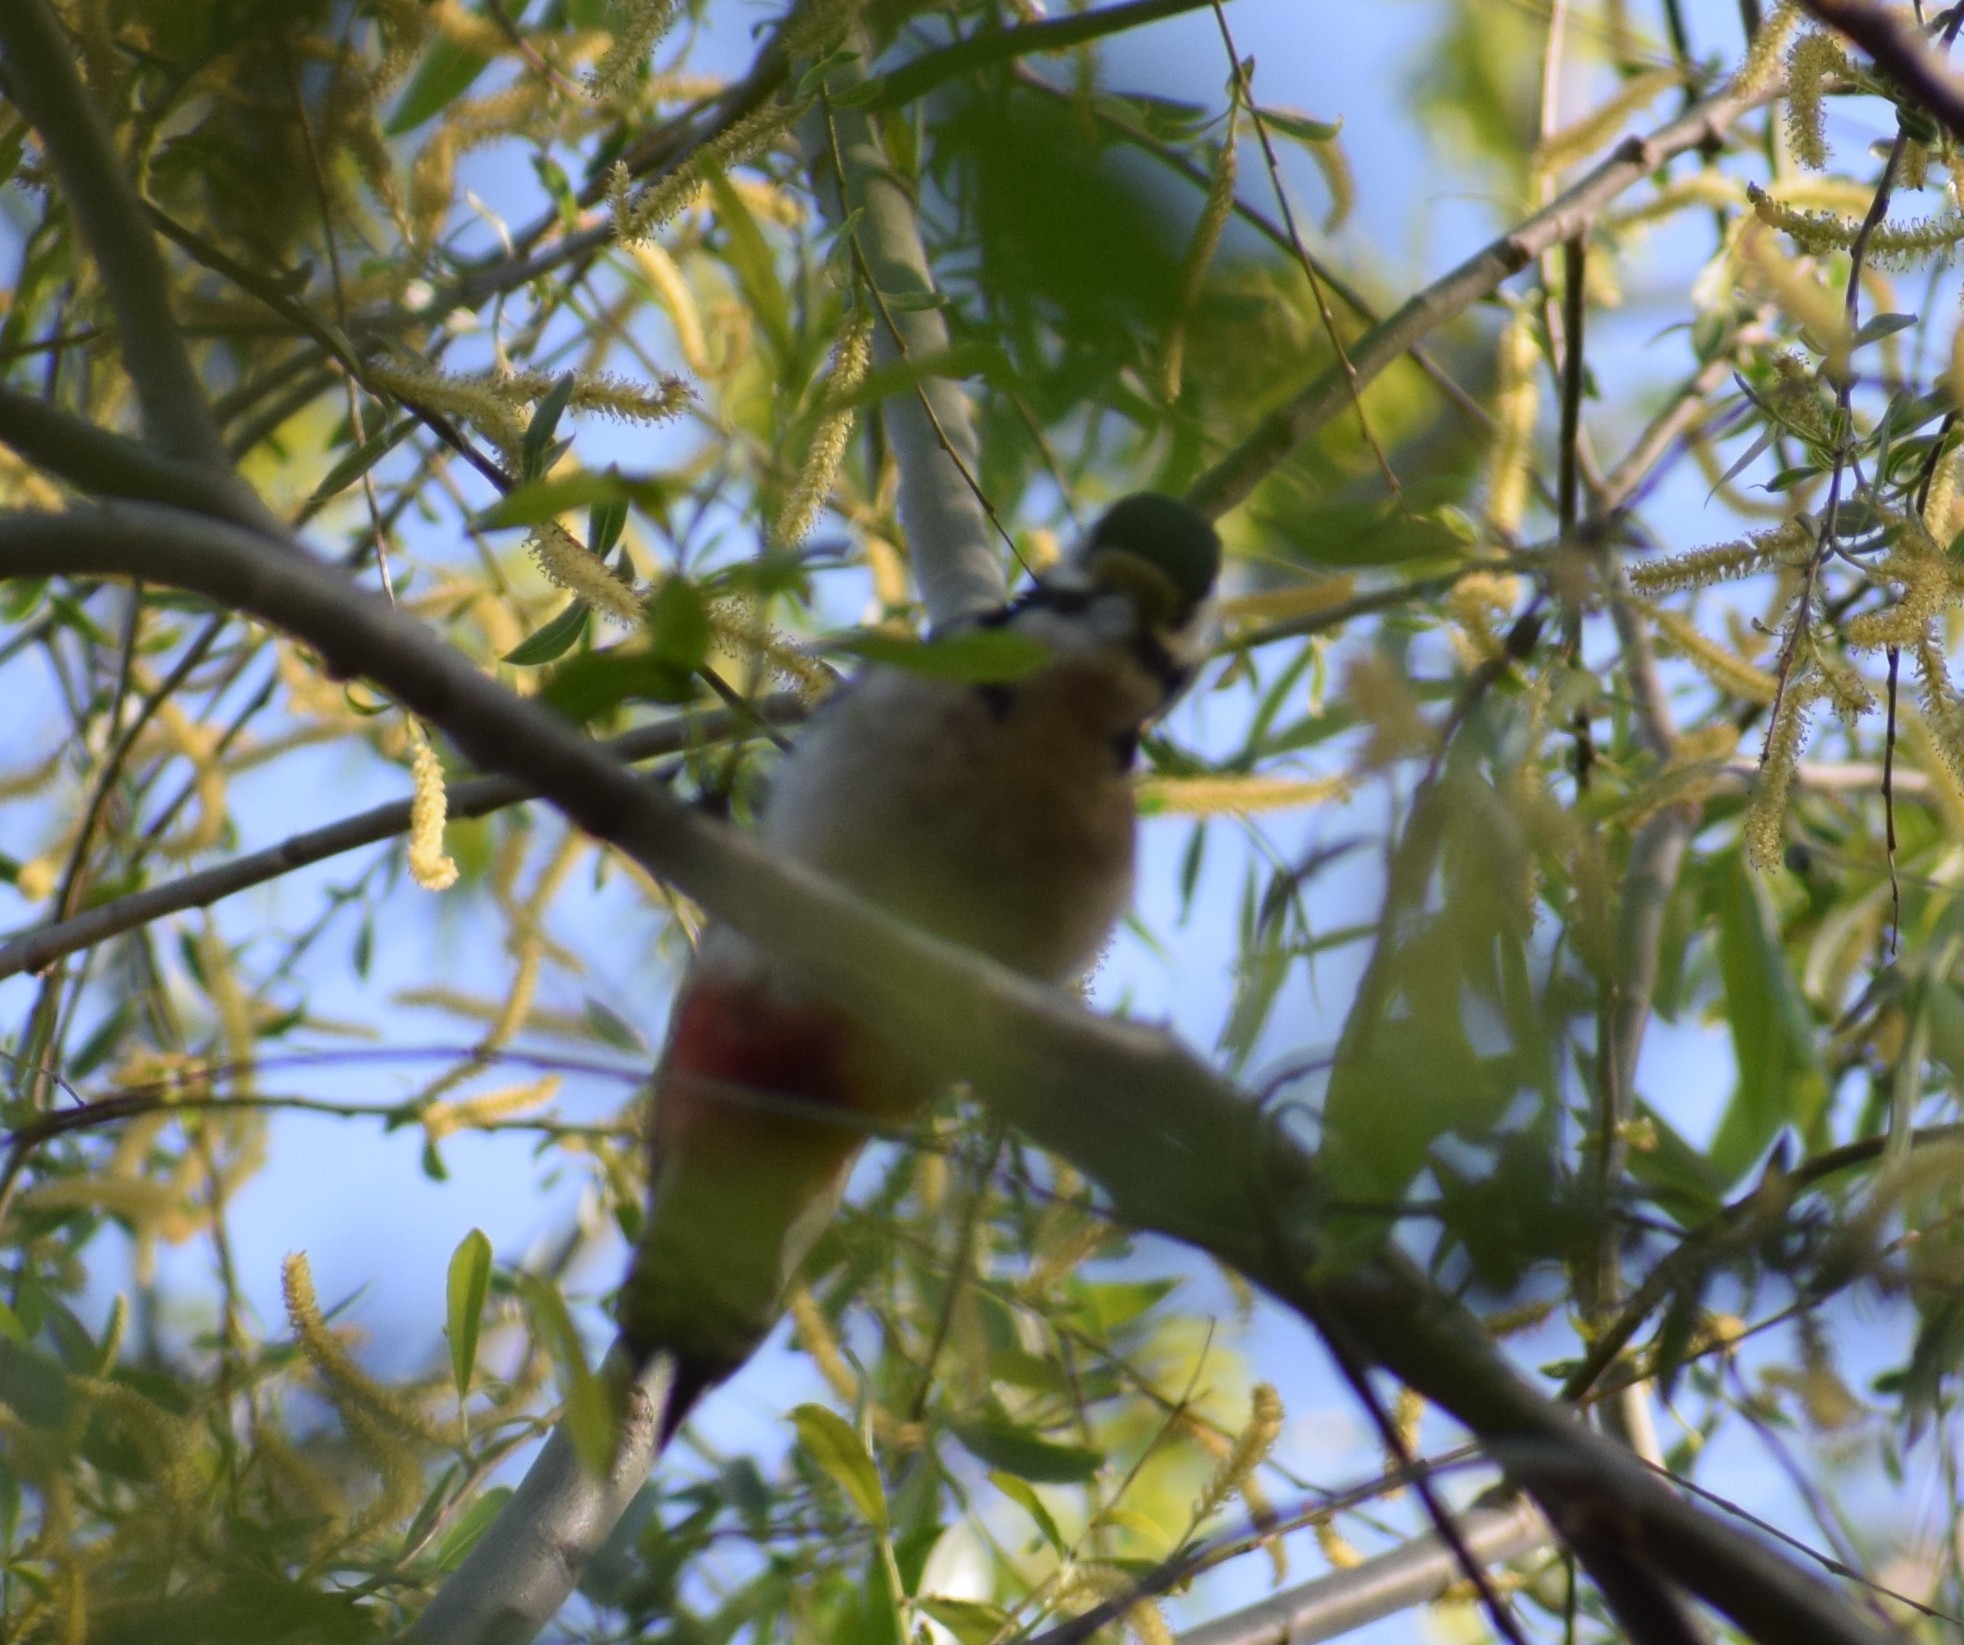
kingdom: Animalia
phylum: Chordata
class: Aves
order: Piciformes
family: Picidae
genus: Dendrocopos
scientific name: Dendrocopos major
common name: Great spotted woodpecker
